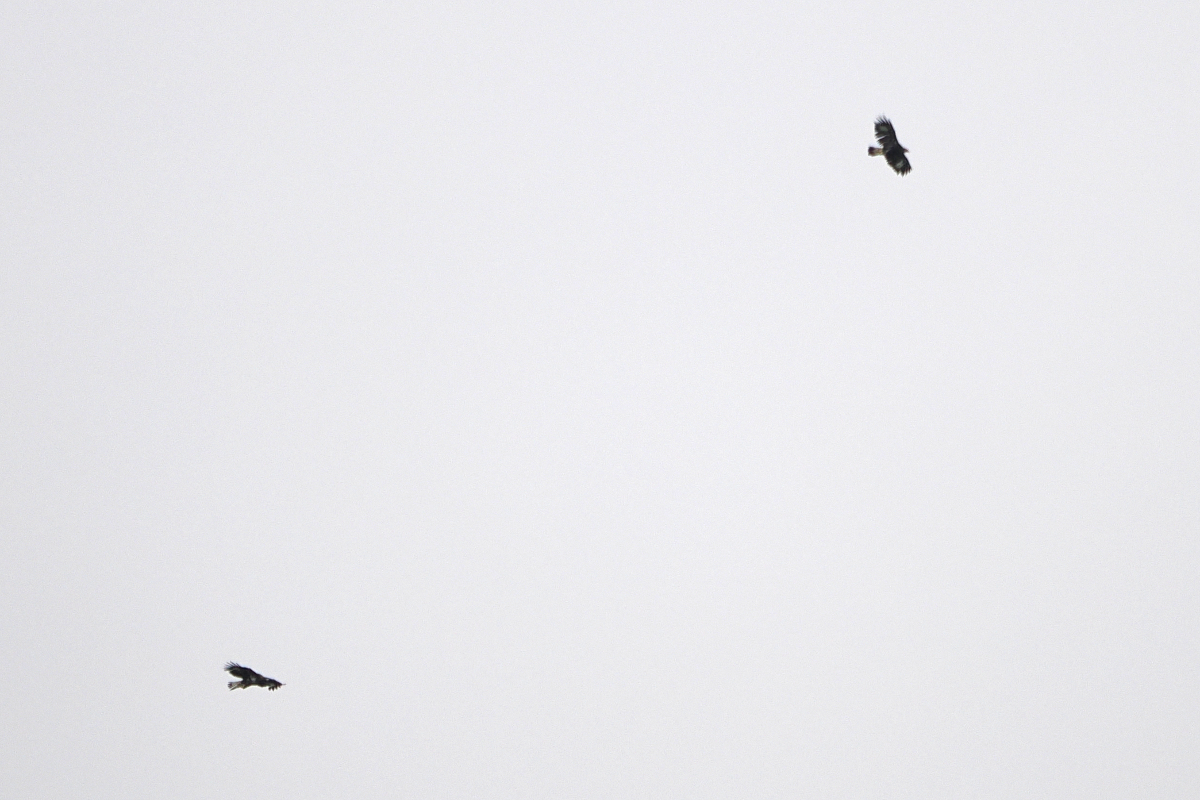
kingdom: Animalia
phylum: Chordata
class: Aves
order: Accipitriformes
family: Accipitridae
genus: Aquila
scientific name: Aquila chrysaetos
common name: Golden eagle
